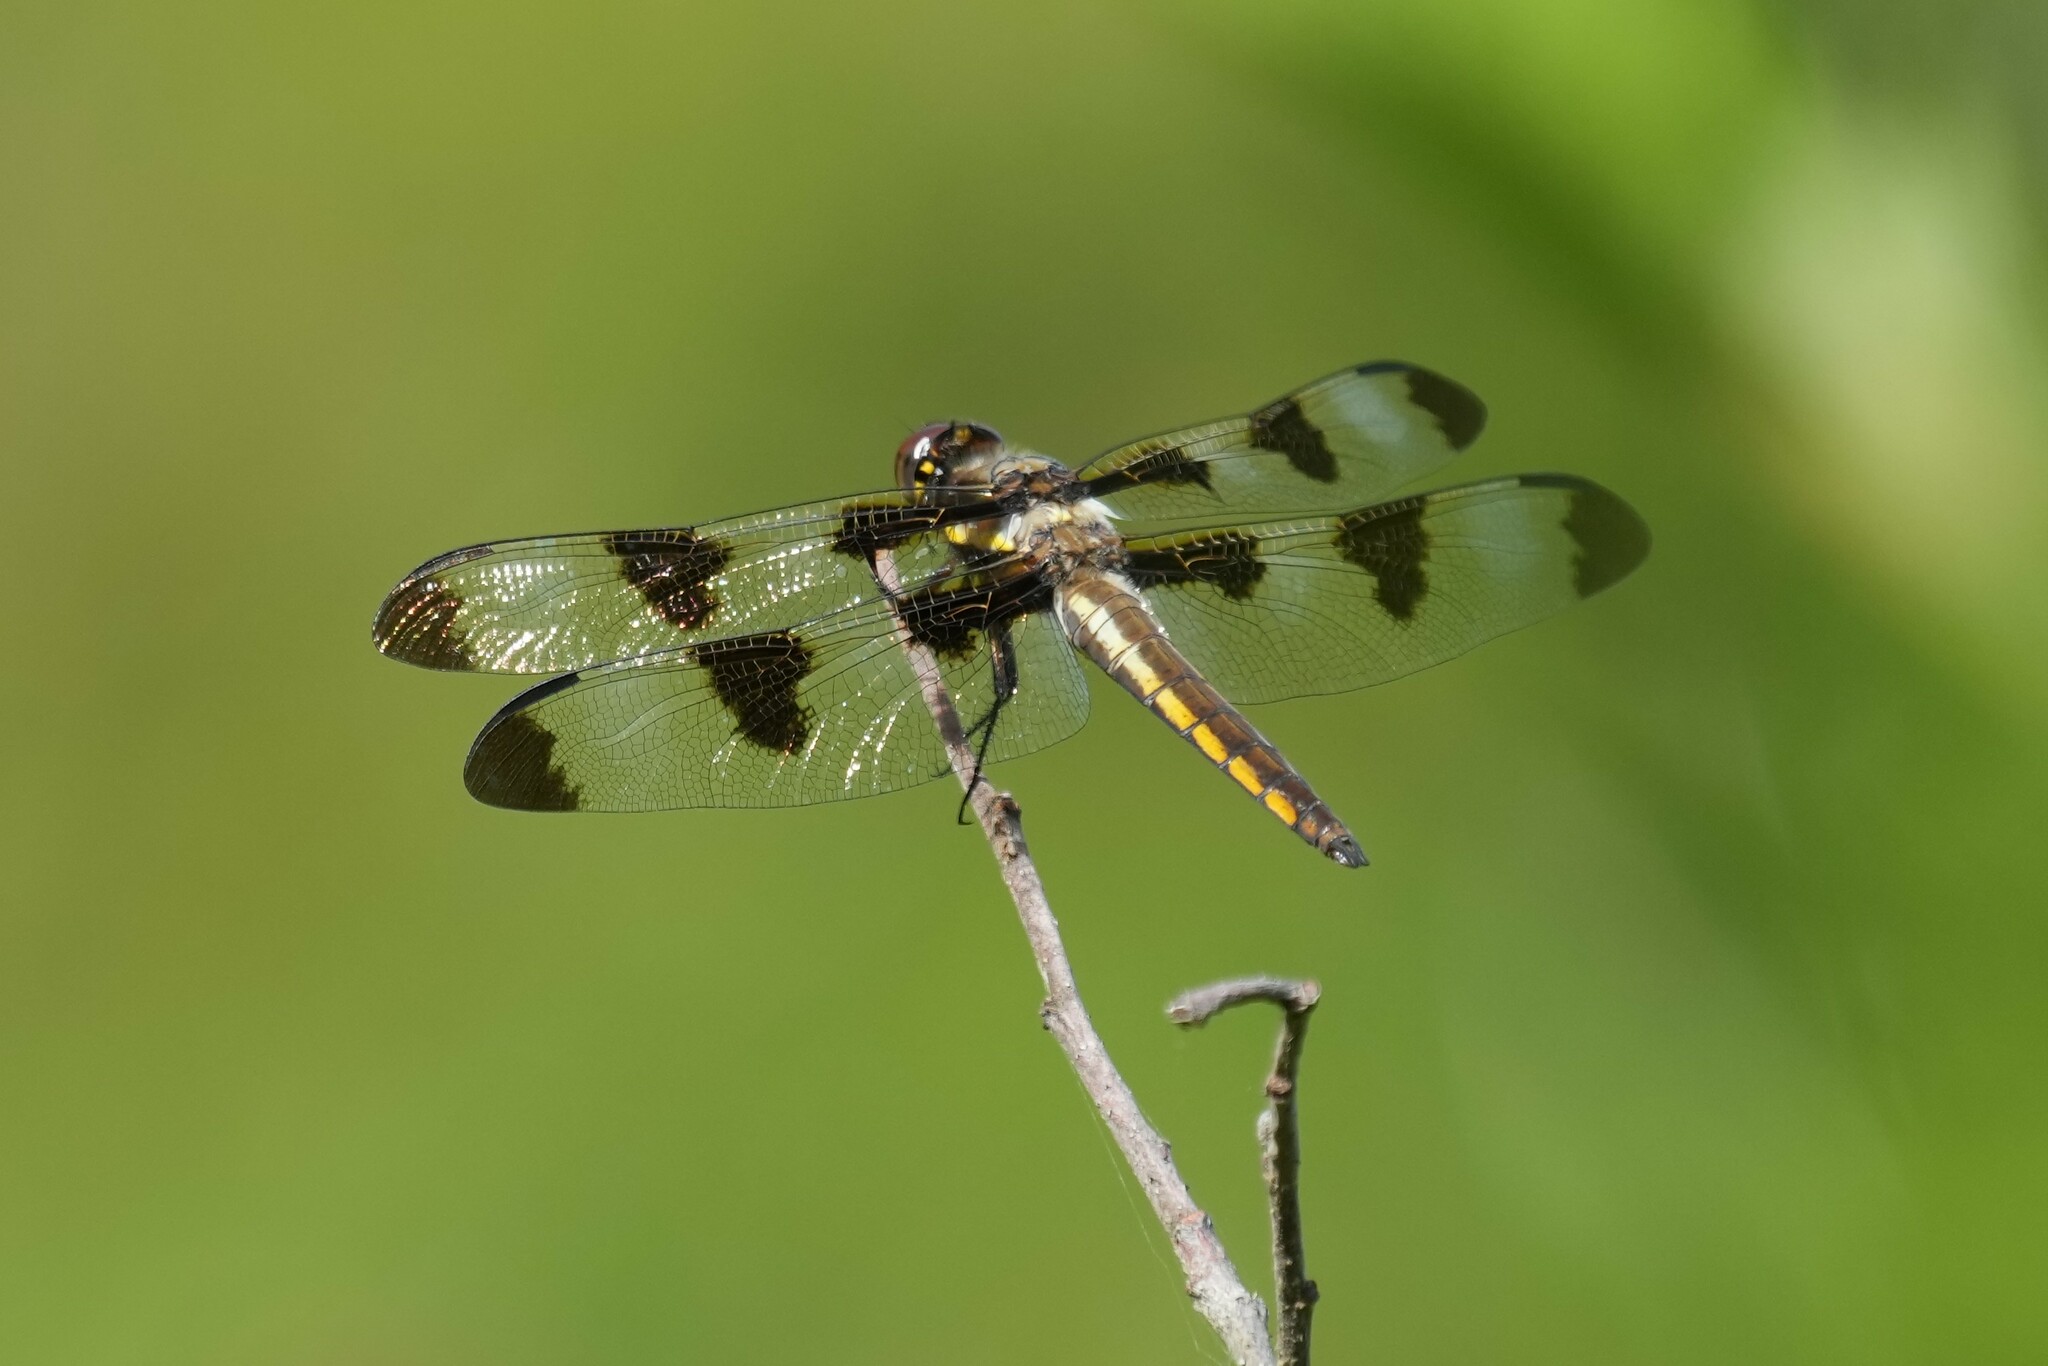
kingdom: Animalia
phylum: Arthropoda
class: Insecta
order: Odonata
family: Libellulidae
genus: Libellula
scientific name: Libellula pulchella
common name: Twelve-spotted skimmer
